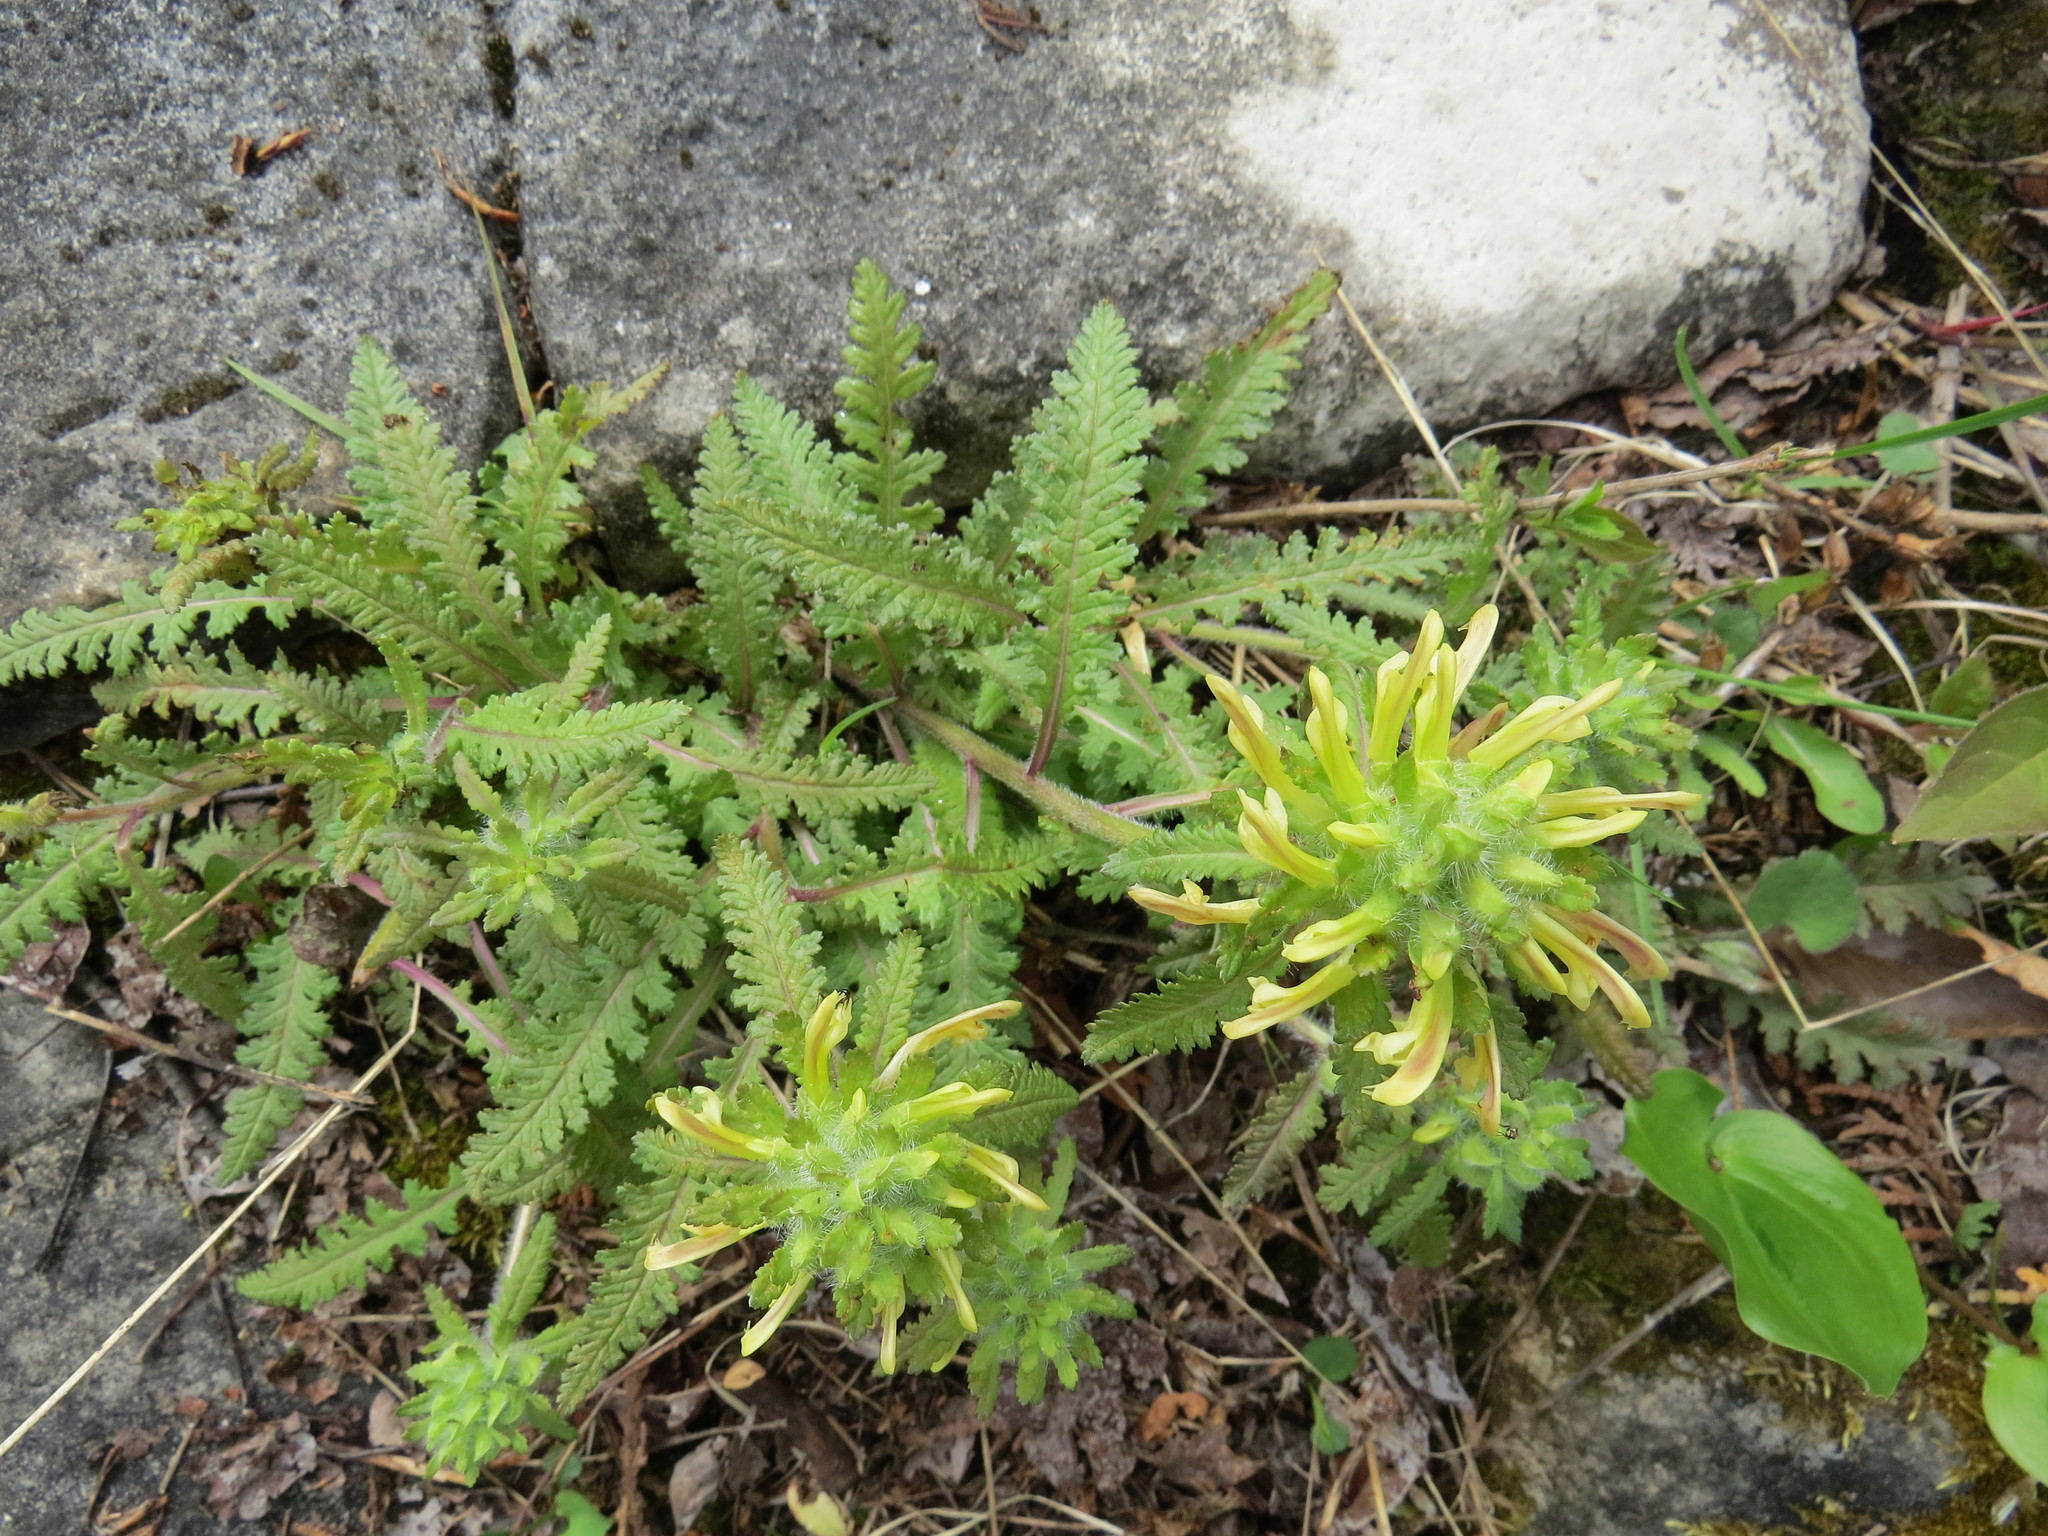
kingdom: Plantae
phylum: Tracheophyta
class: Magnoliopsida
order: Lamiales
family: Orobanchaceae
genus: Pedicularis
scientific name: Pedicularis canadensis
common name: Early lousewort
